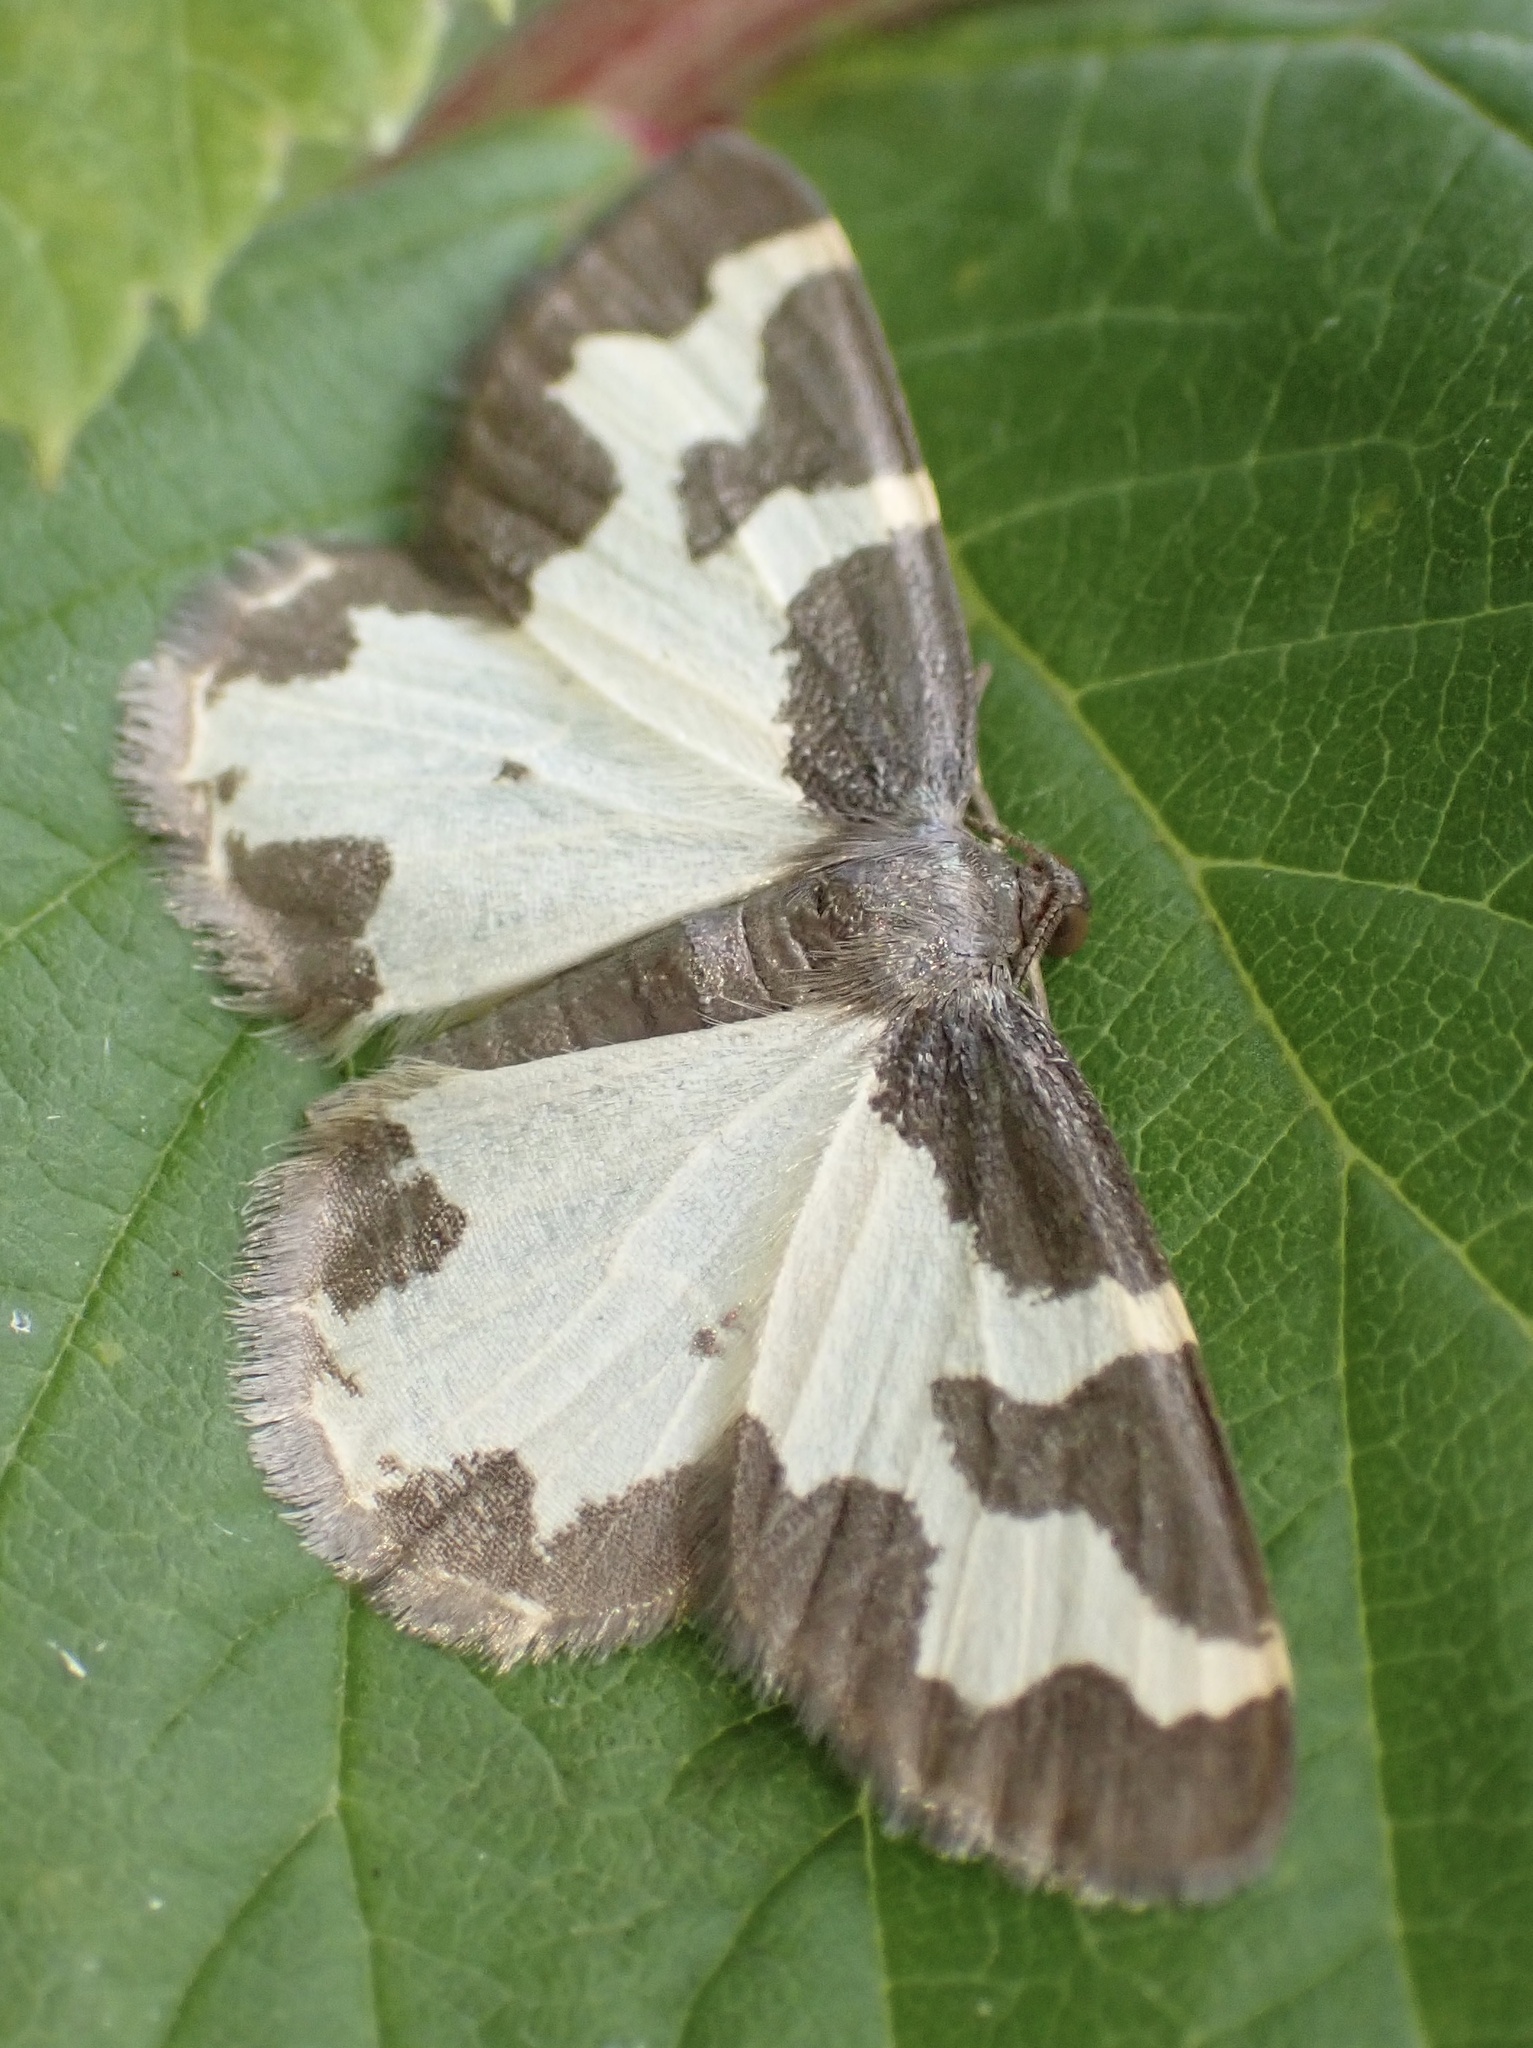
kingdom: Animalia
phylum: Arthropoda
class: Insecta
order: Lepidoptera
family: Geometridae
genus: Lomaspilis
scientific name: Lomaspilis marginata
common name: Clouded border
